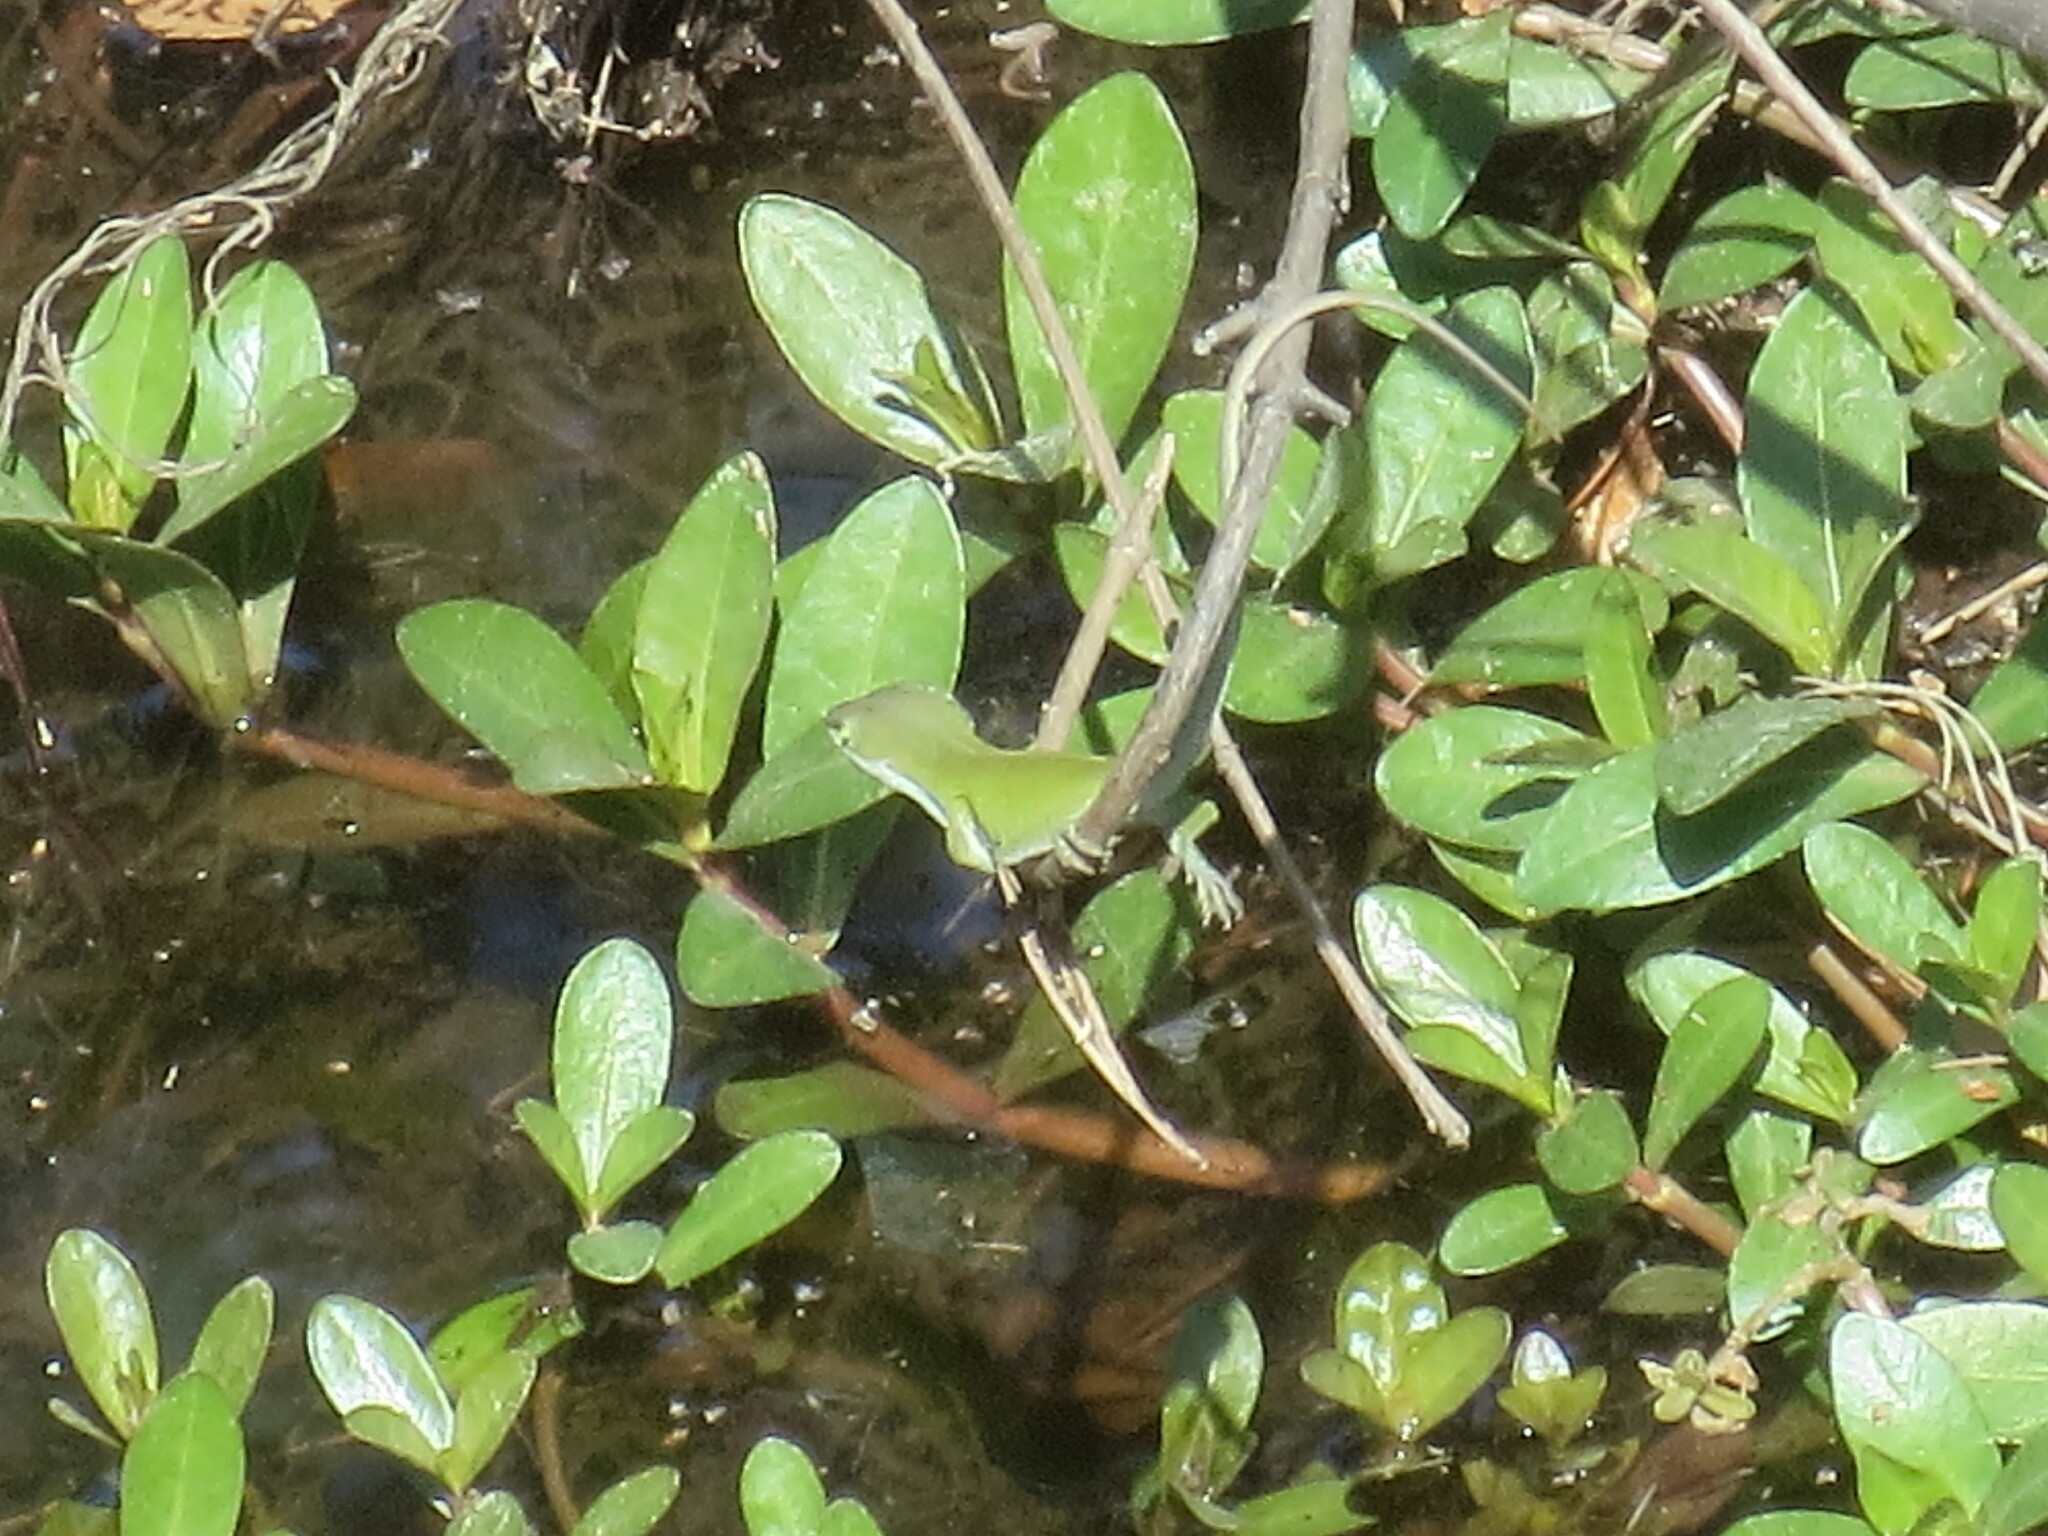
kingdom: Animalia
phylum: Chordata
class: Squamata
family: Dactyloidae
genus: Anolis
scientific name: Anolis carolinensis
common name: Green anole
